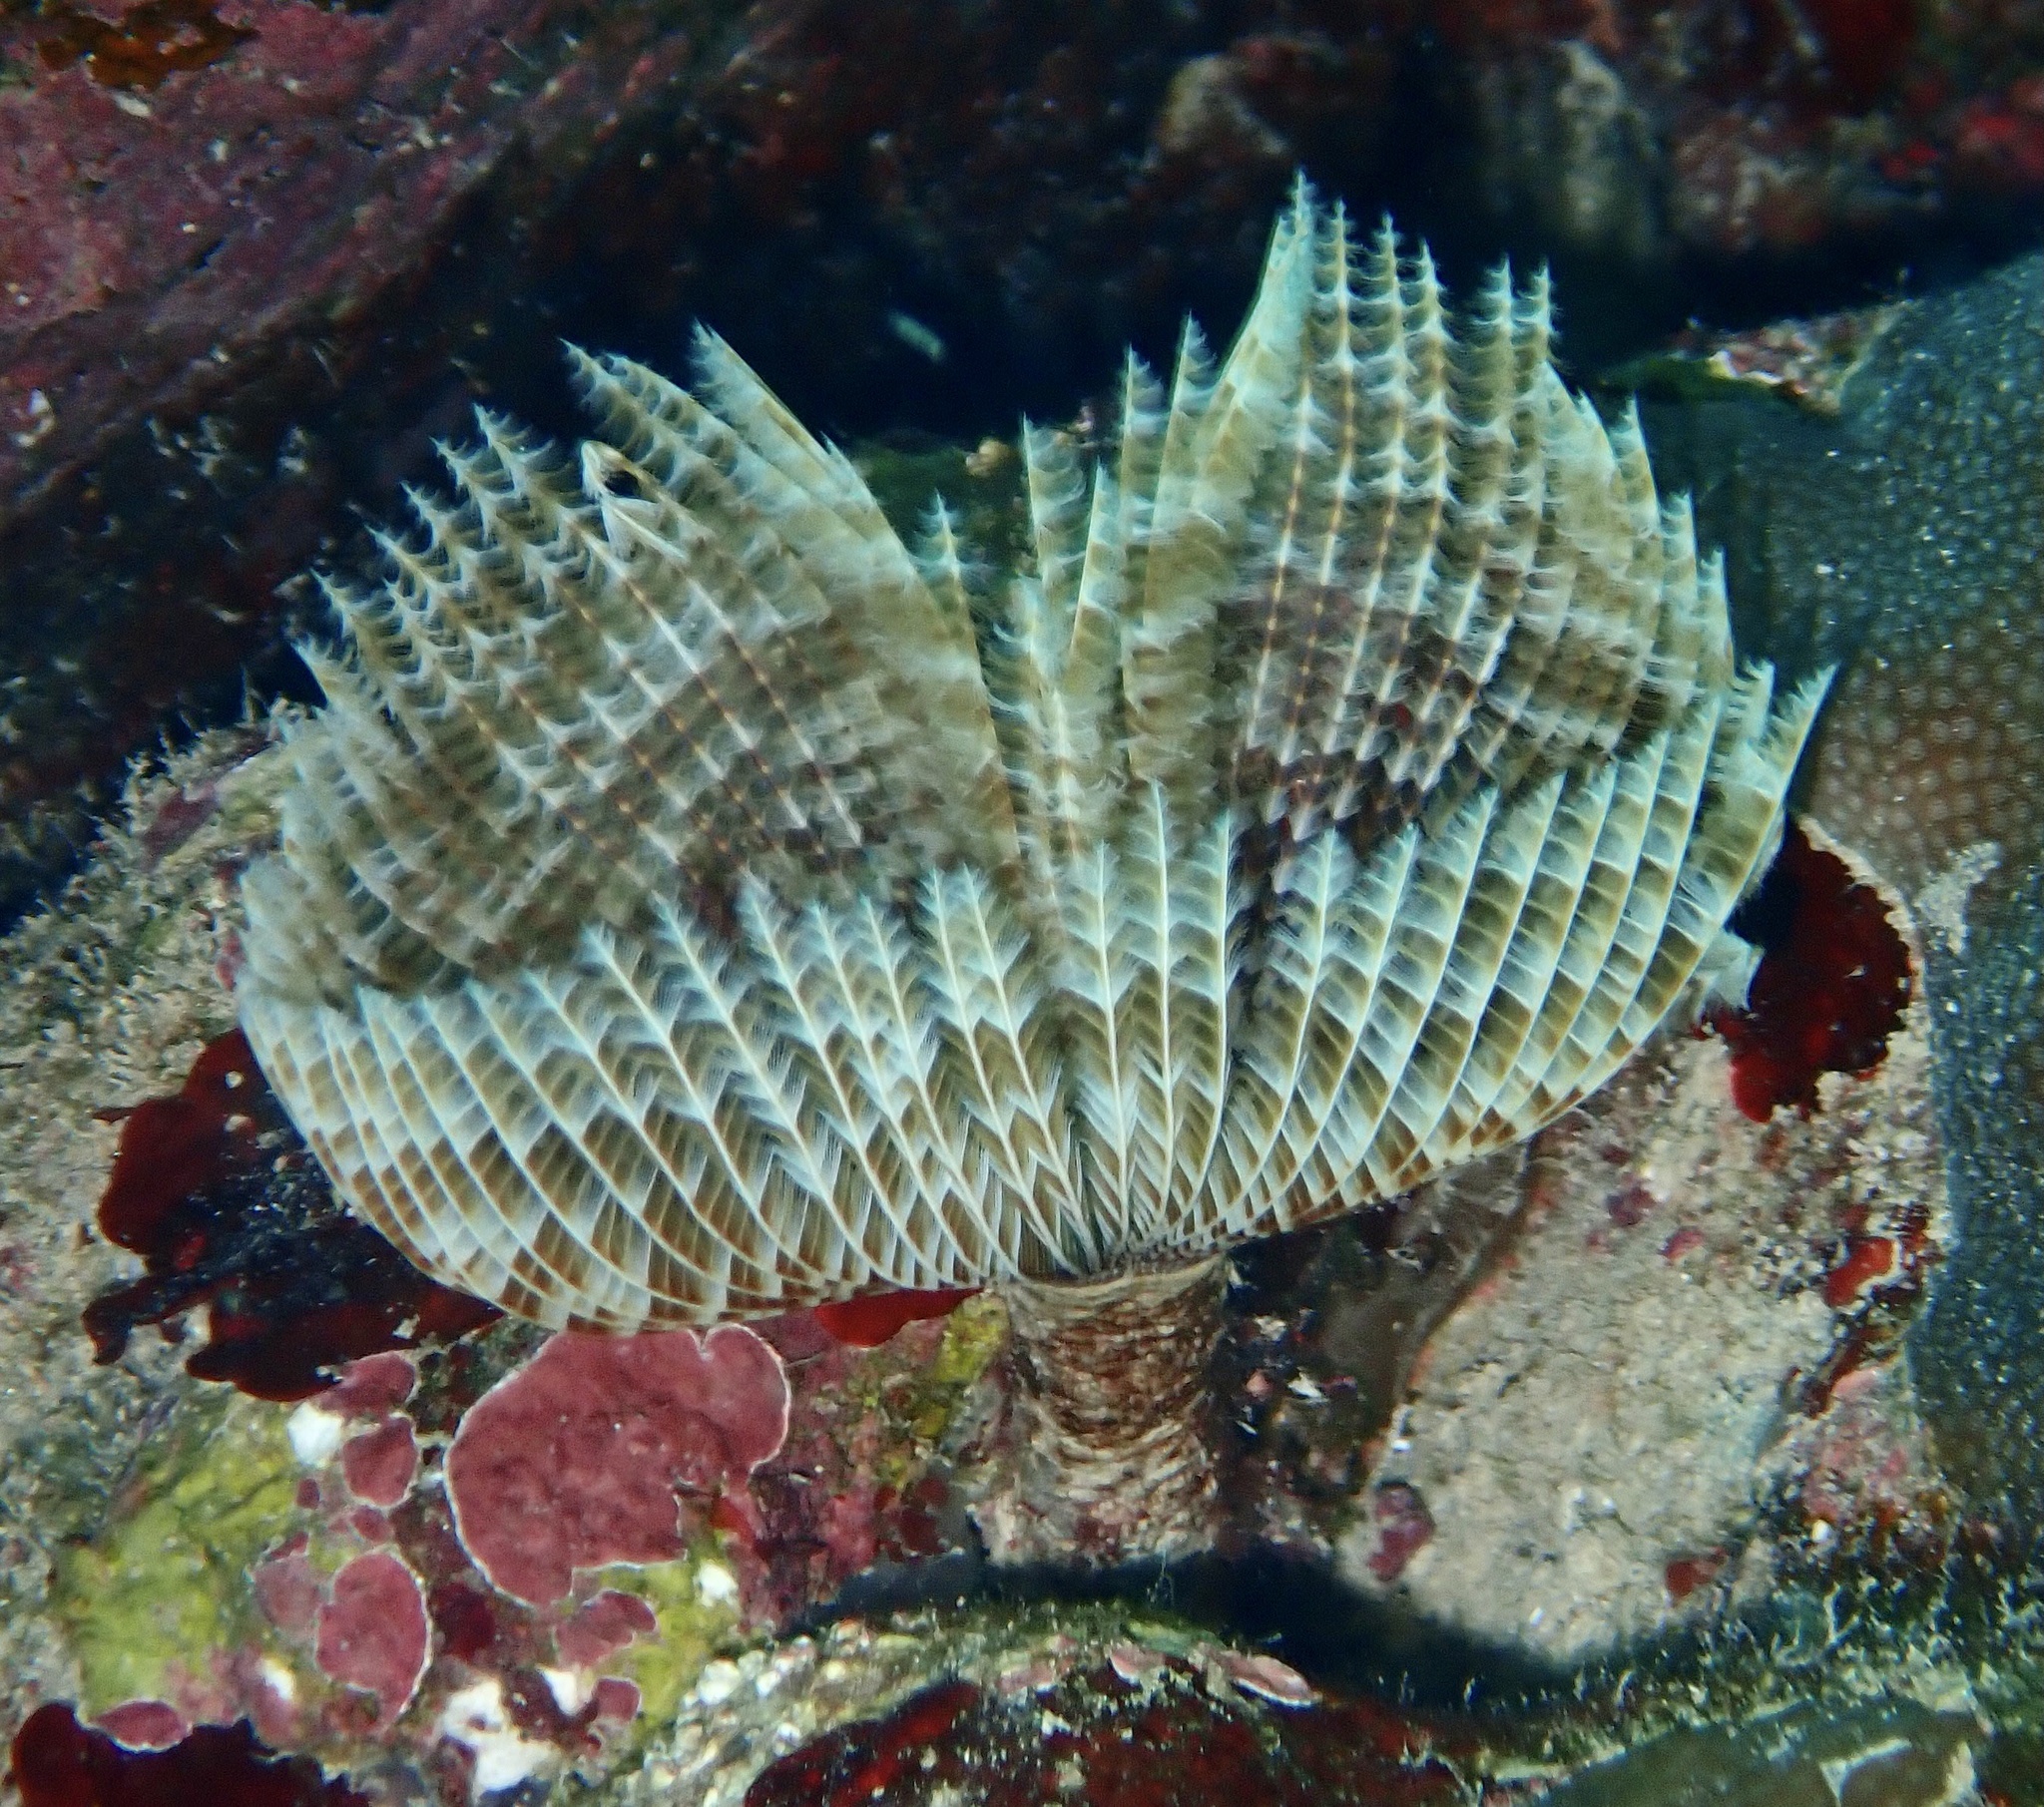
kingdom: Animalia
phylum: Annelida
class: Polychaeta
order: Sabellida
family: Sabellidae
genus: Sabellastarte
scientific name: Sabellastarte spectabilis
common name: Feather duster worm
